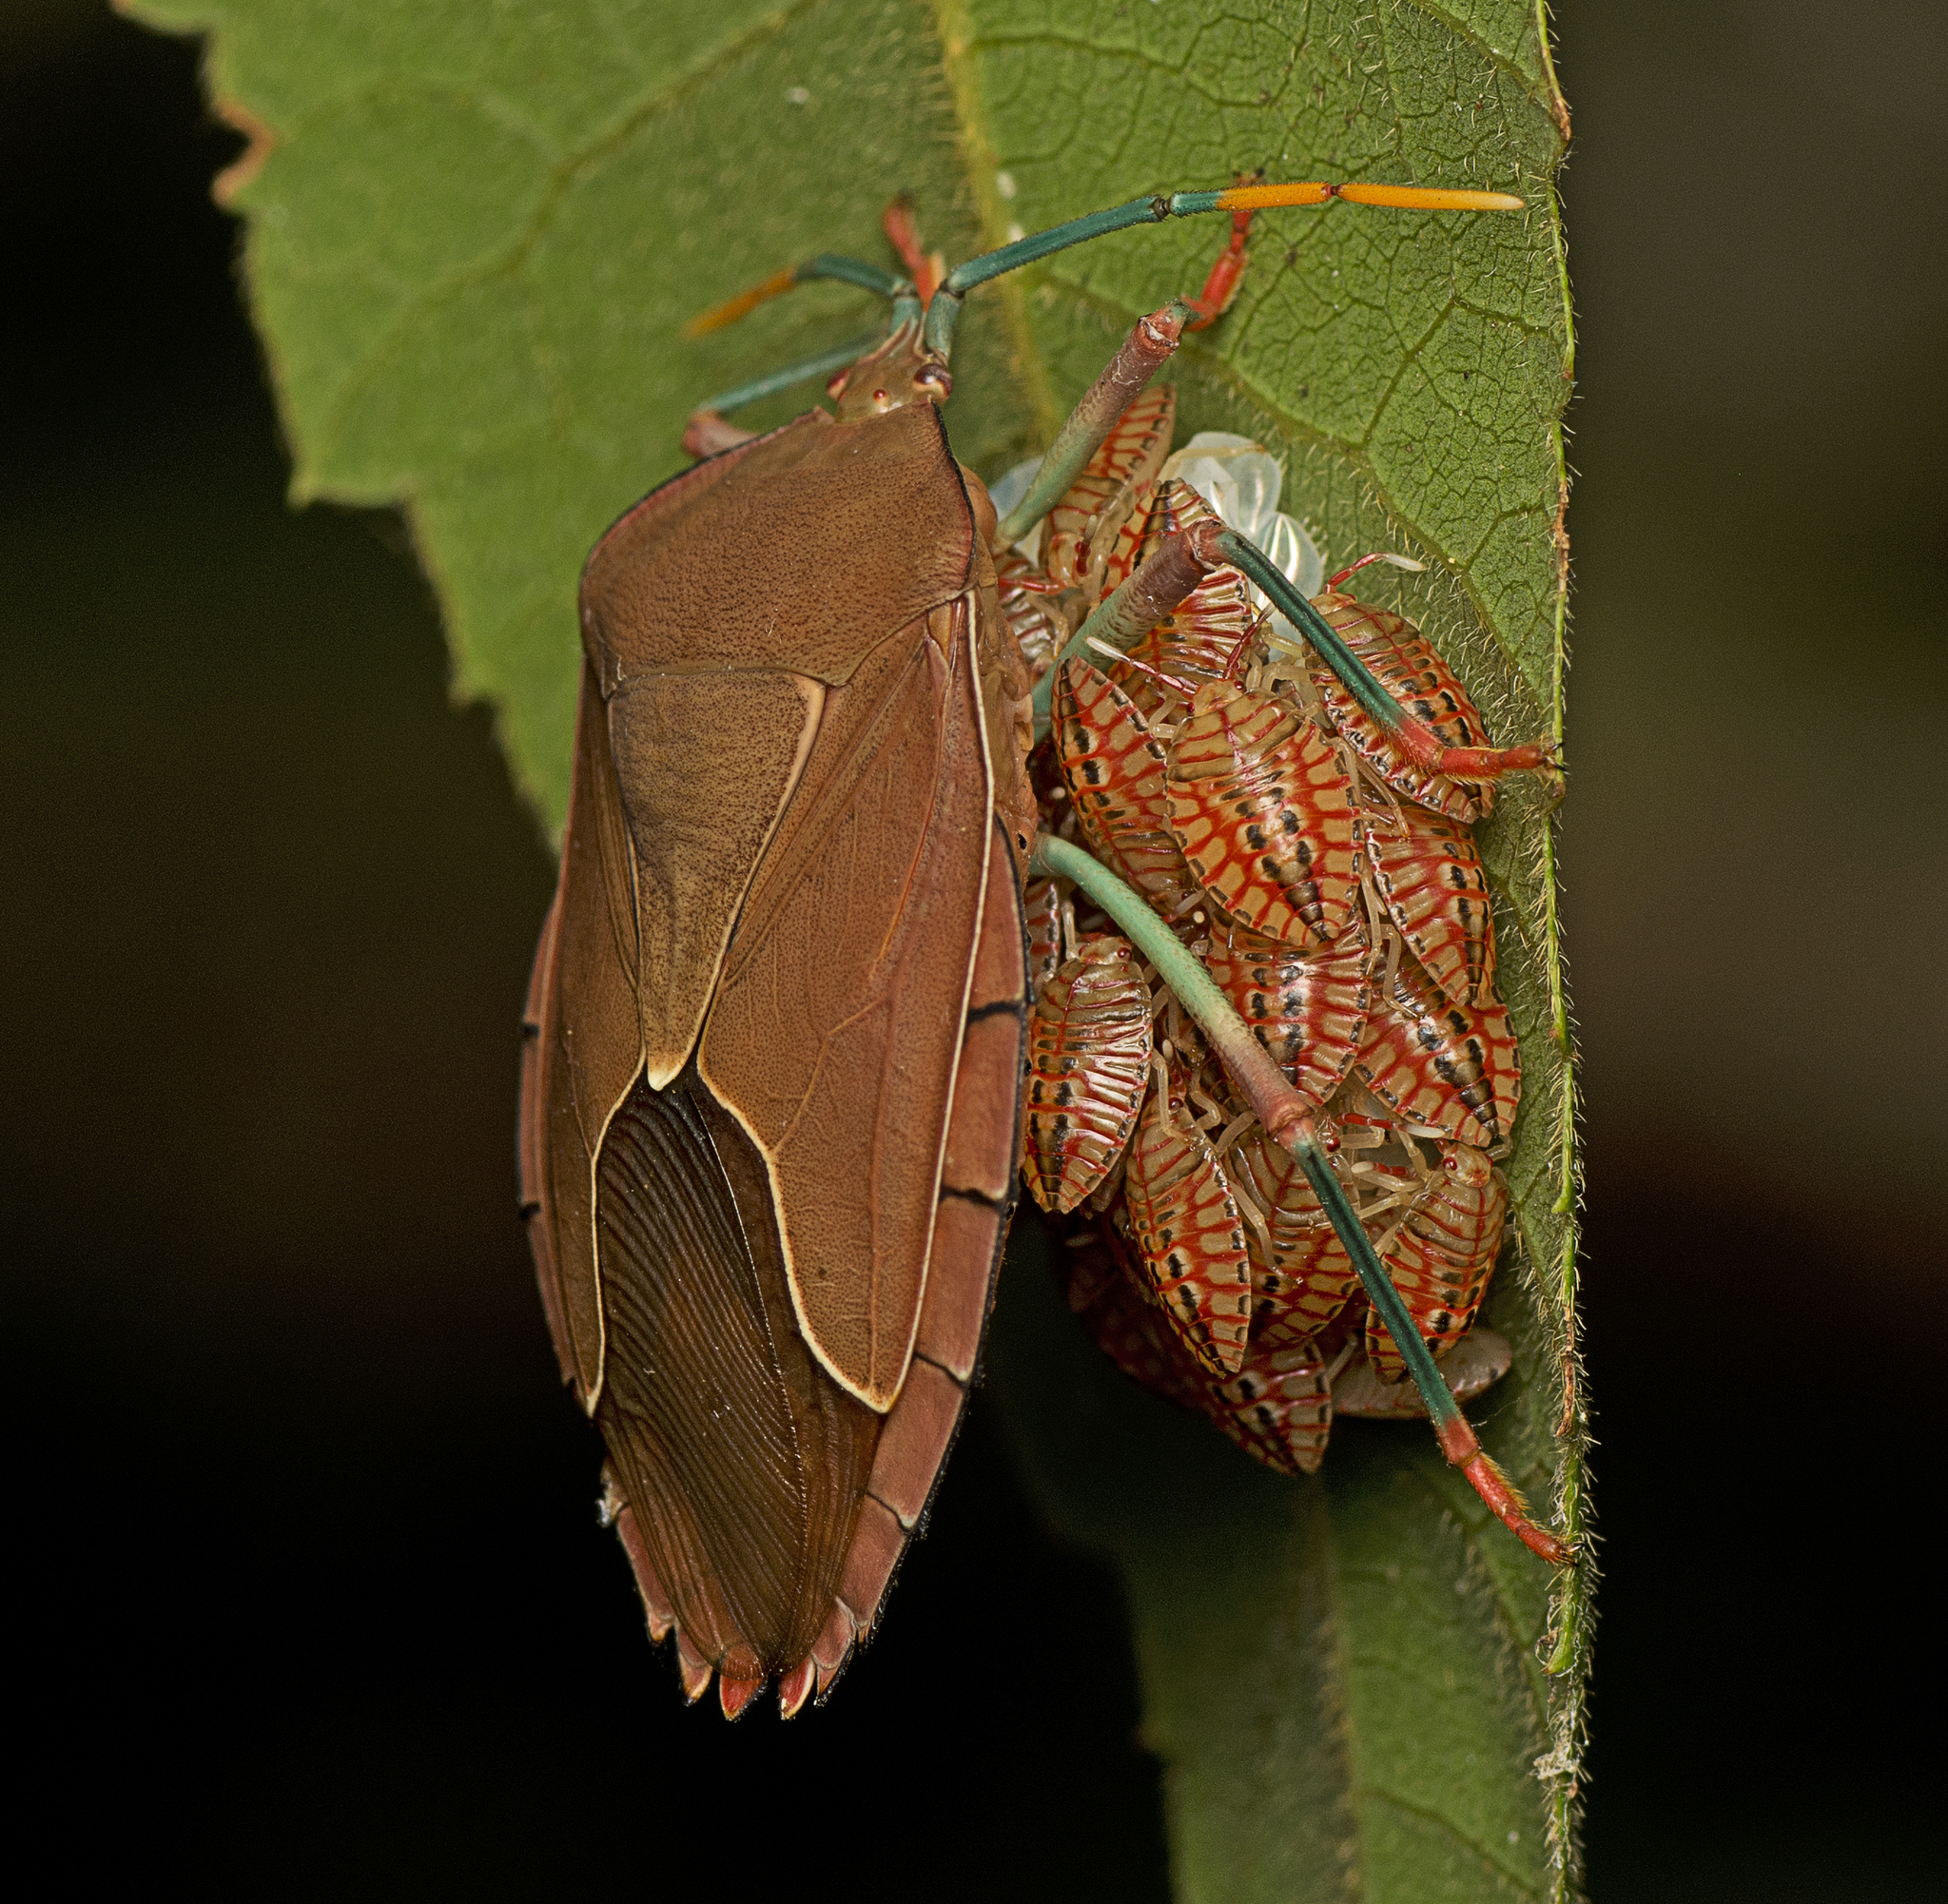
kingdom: Animalia
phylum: Arthropoda
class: Insecta
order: Hemiptera
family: Tessaratomidae
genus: Stilida
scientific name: Stilida indecora
